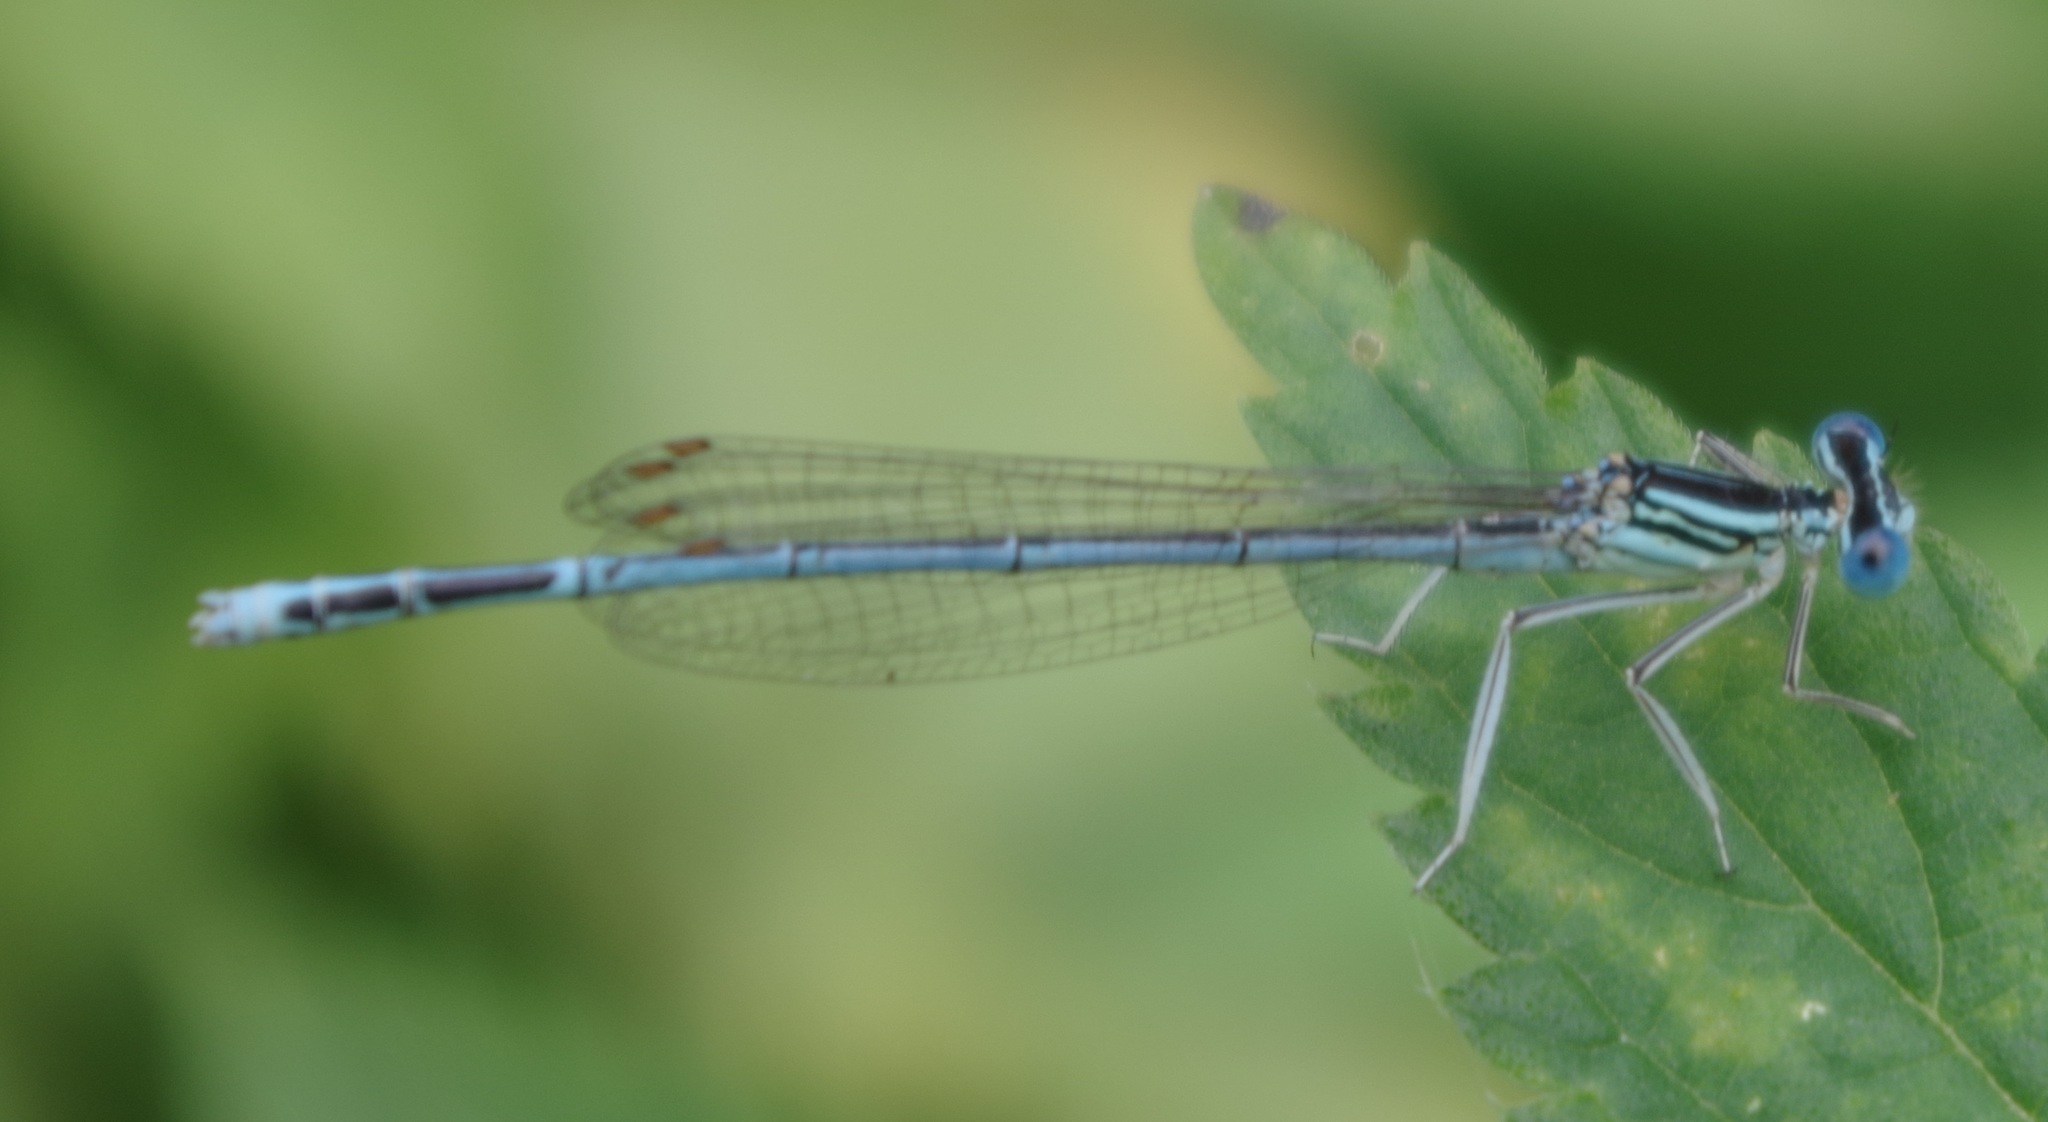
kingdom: Animalia
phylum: Arthropoda
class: Insecta
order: Odonata
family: Platycnemididae
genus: Platycnemis
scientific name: Platycnemis pennipes
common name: White-legged damselfly
